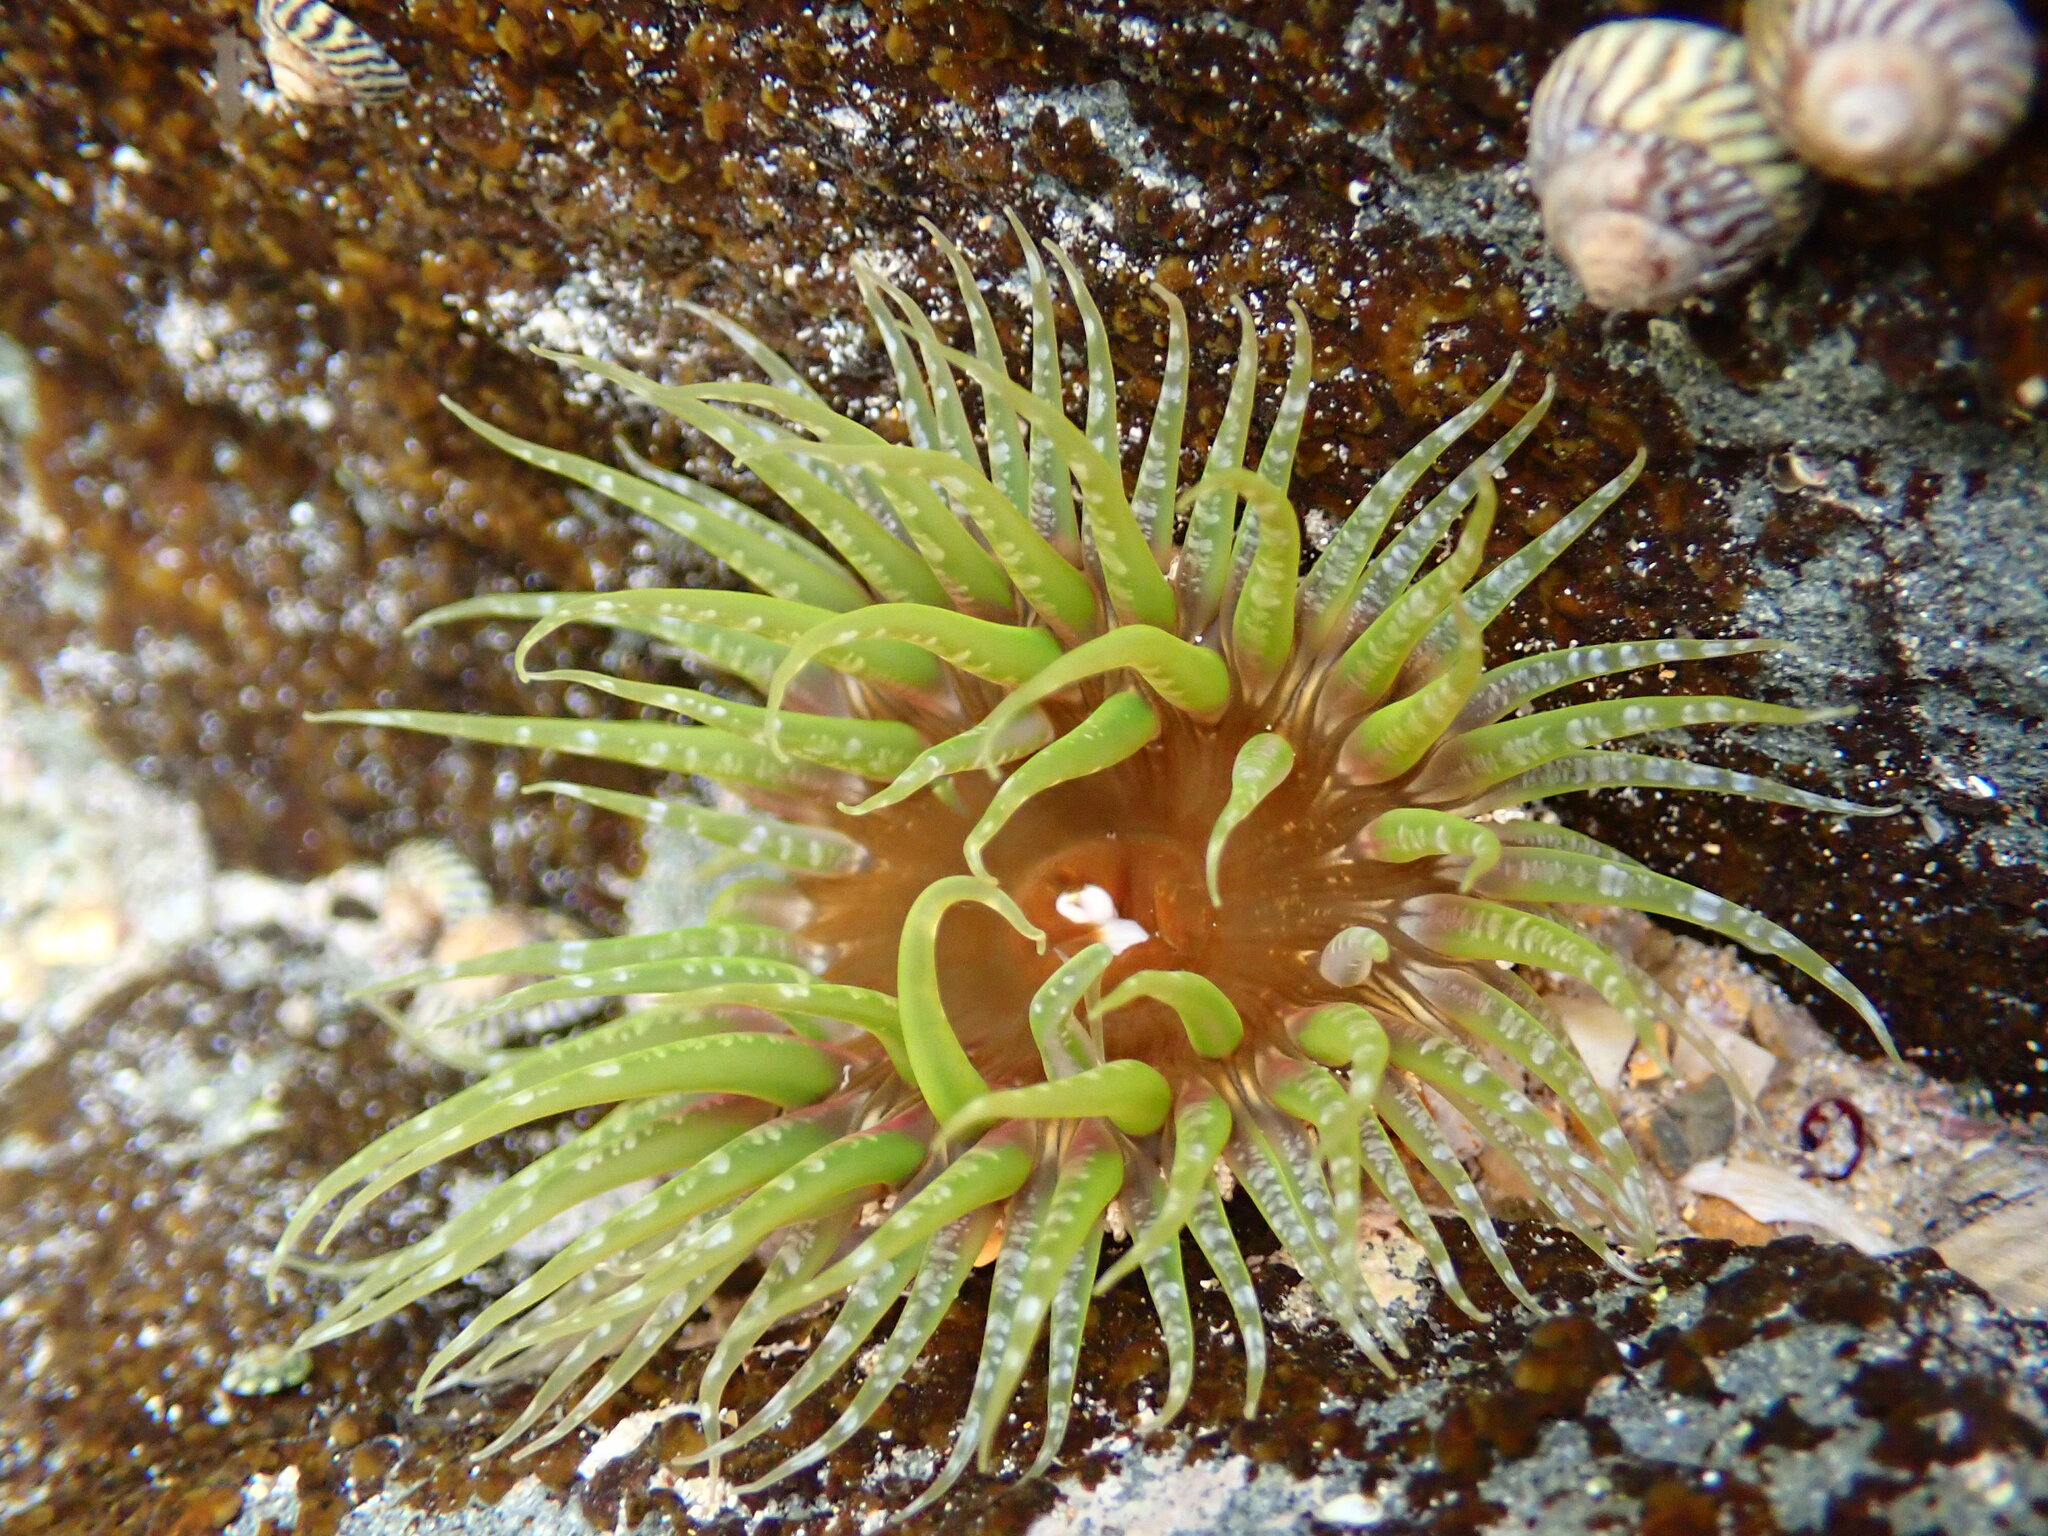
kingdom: Animalia
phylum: Cnidaria
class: Anthozoa
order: Actiniaria
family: Actiniidae
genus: Oulactis
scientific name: Oulactis muscosa
